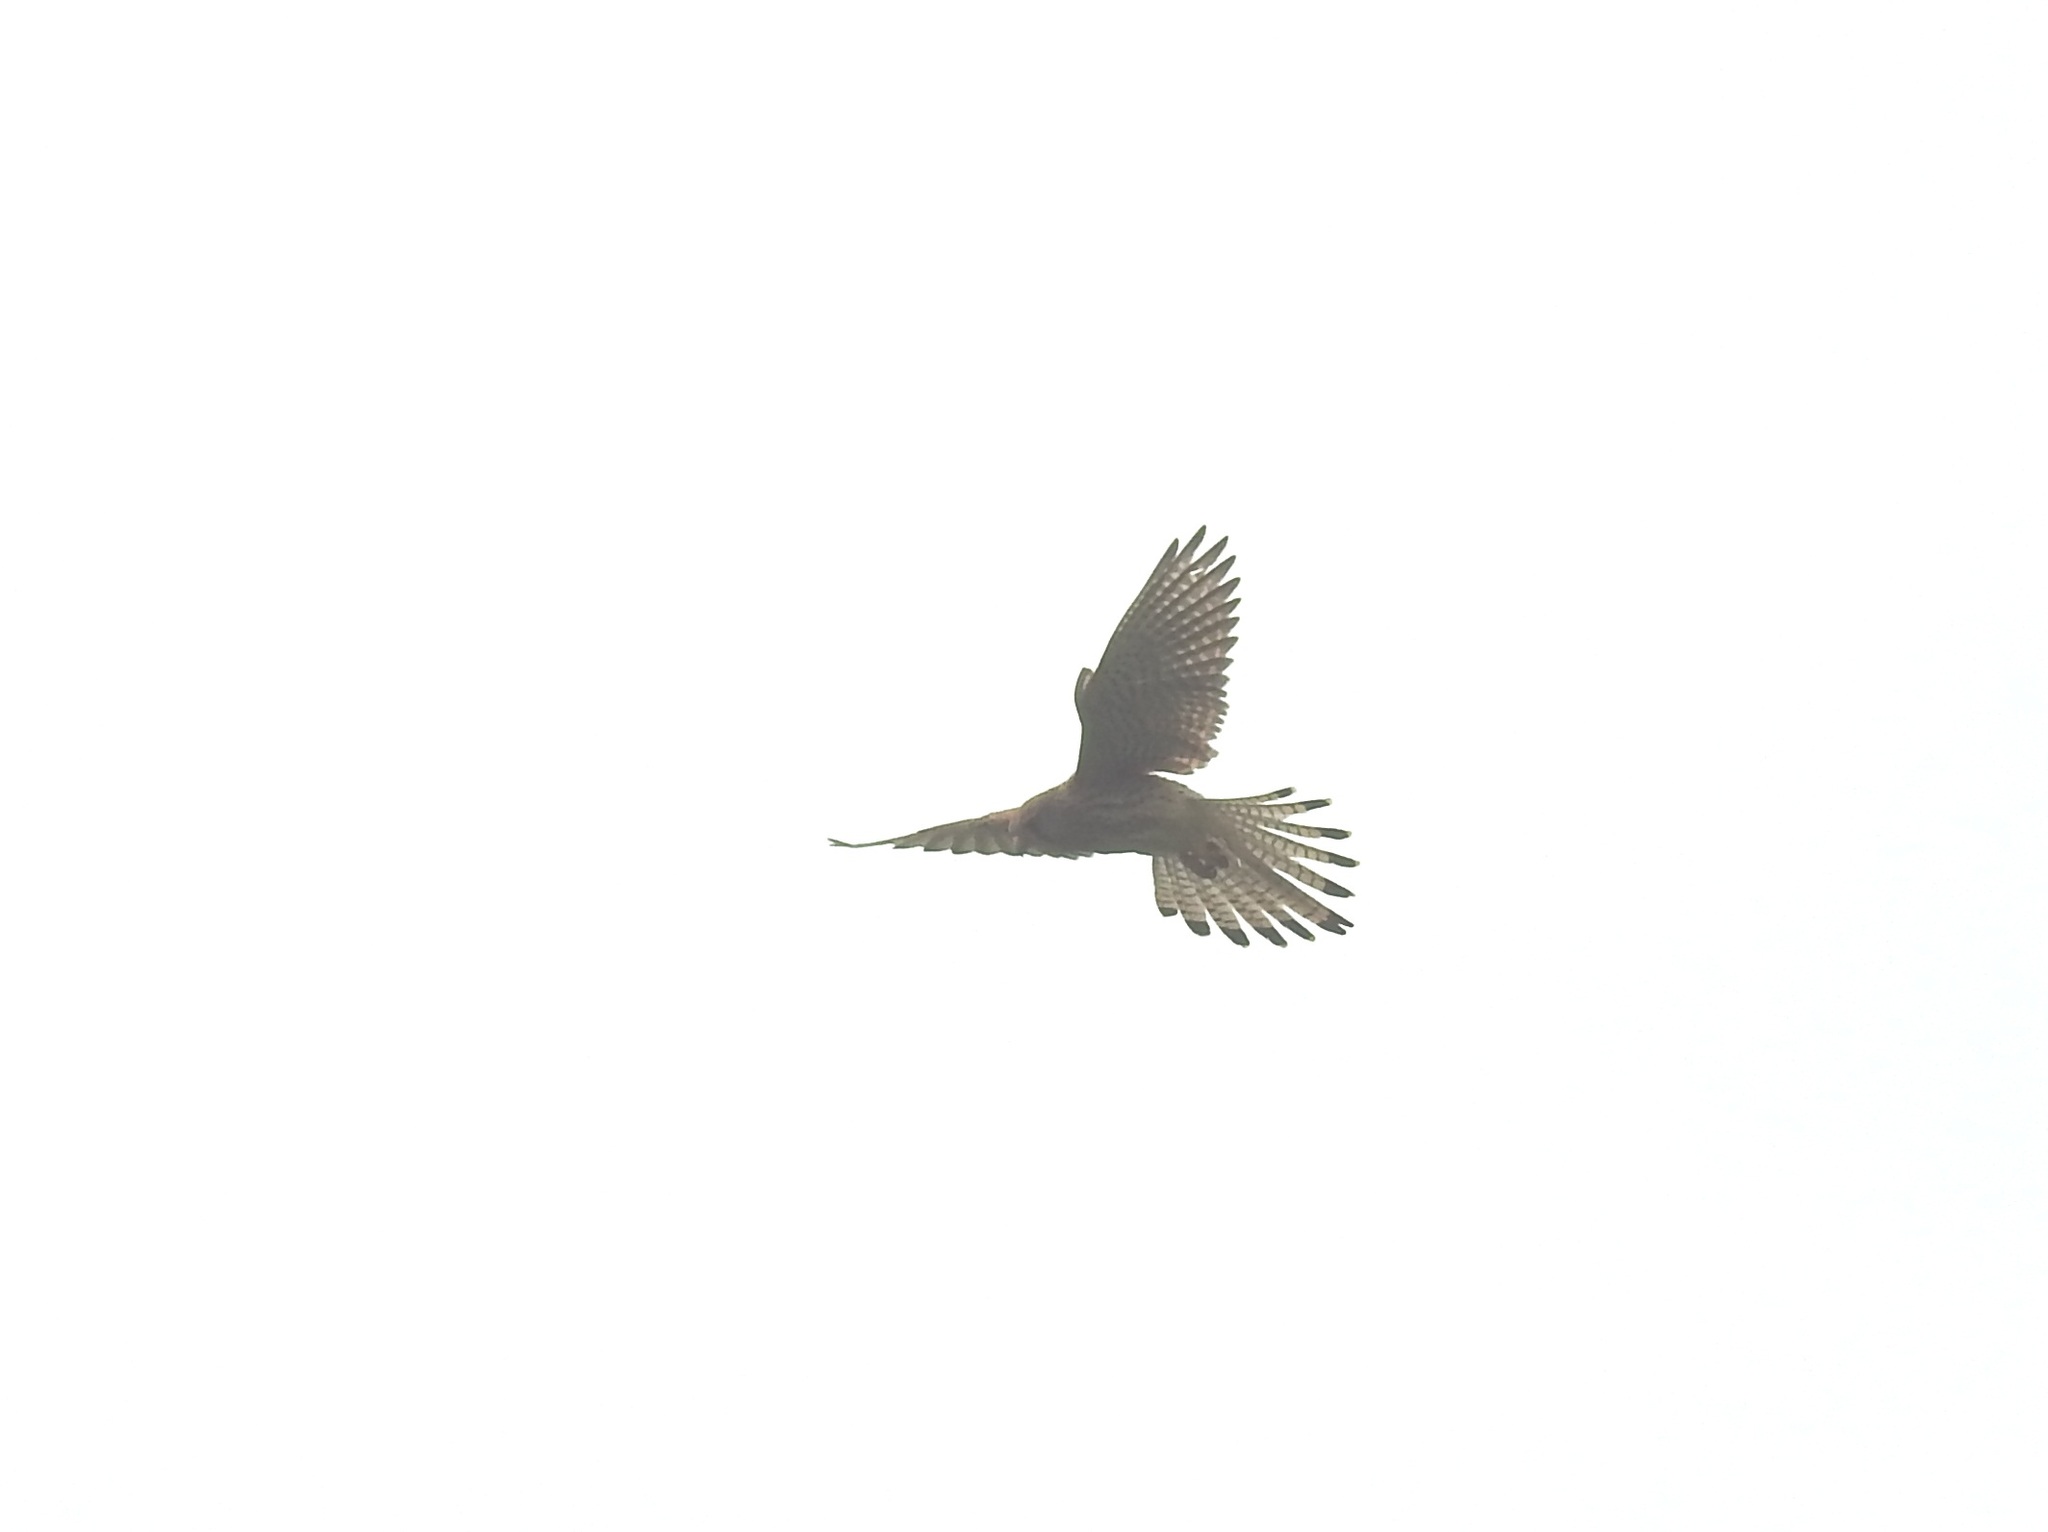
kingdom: Animalia
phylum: Chordata
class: Aves
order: Falconiformes
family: Falconidae
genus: Falco
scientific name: Falco tinnunculus
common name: Common kestrel
